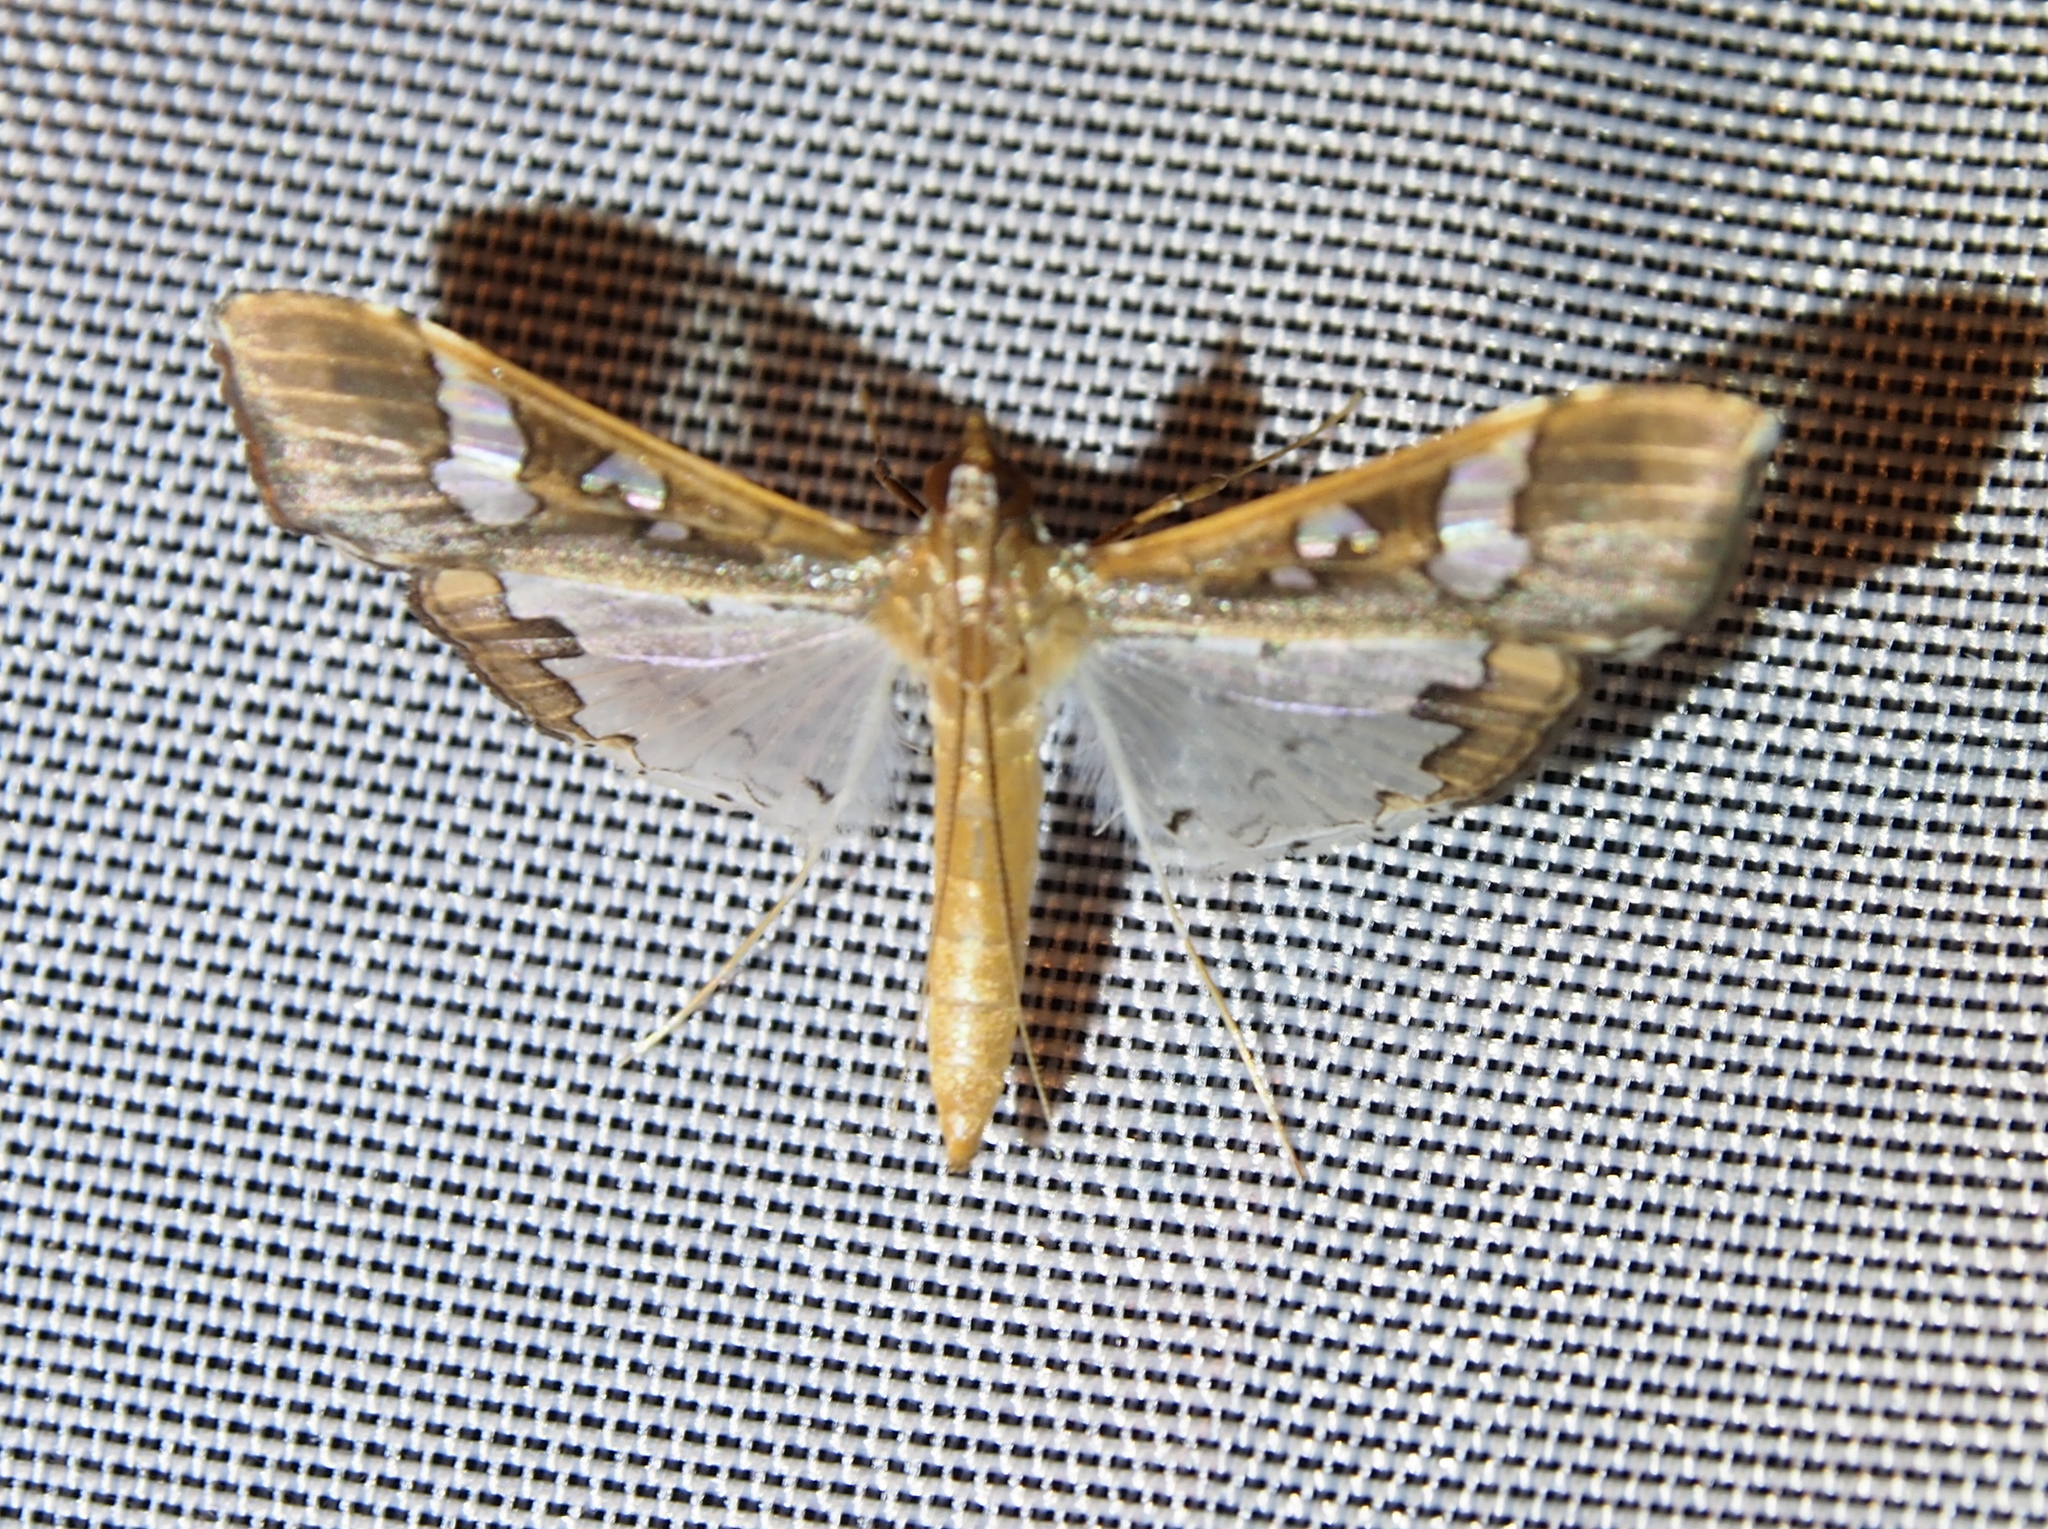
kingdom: Animalia
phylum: Arthropoda
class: Insecta
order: Lepidoptera
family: Crambidae
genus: Maruca
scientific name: Maruca vitrata
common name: Maruca pod borer
